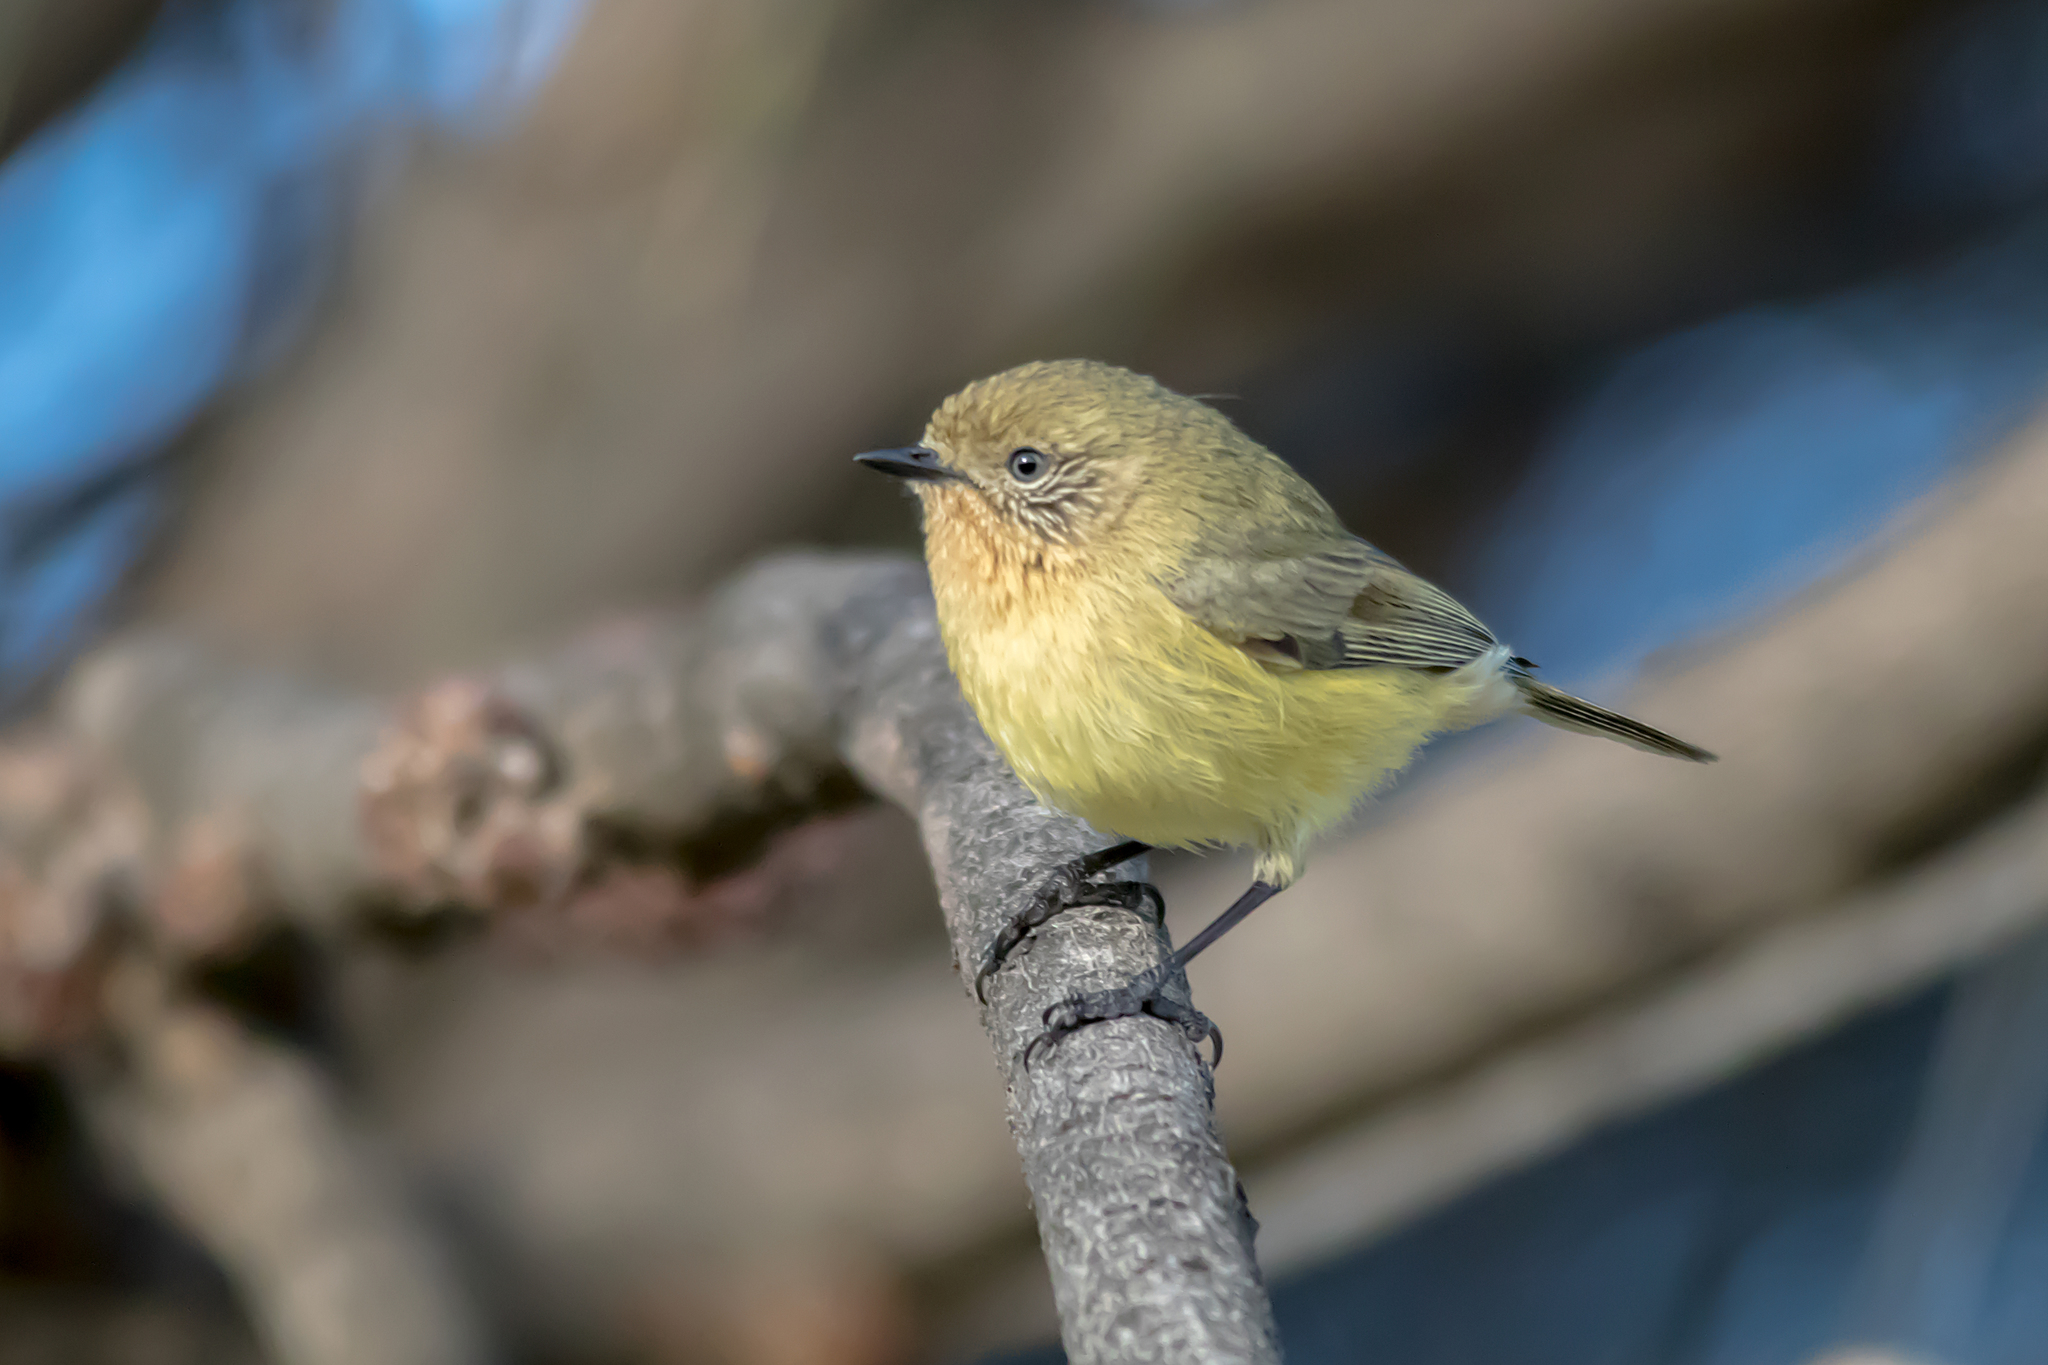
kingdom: Animalia
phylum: Chordata
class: Aves
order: Passeriformes
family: Acanthizidae
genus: Acanthiza
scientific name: Acanthiza nana
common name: Yellow thornbill
